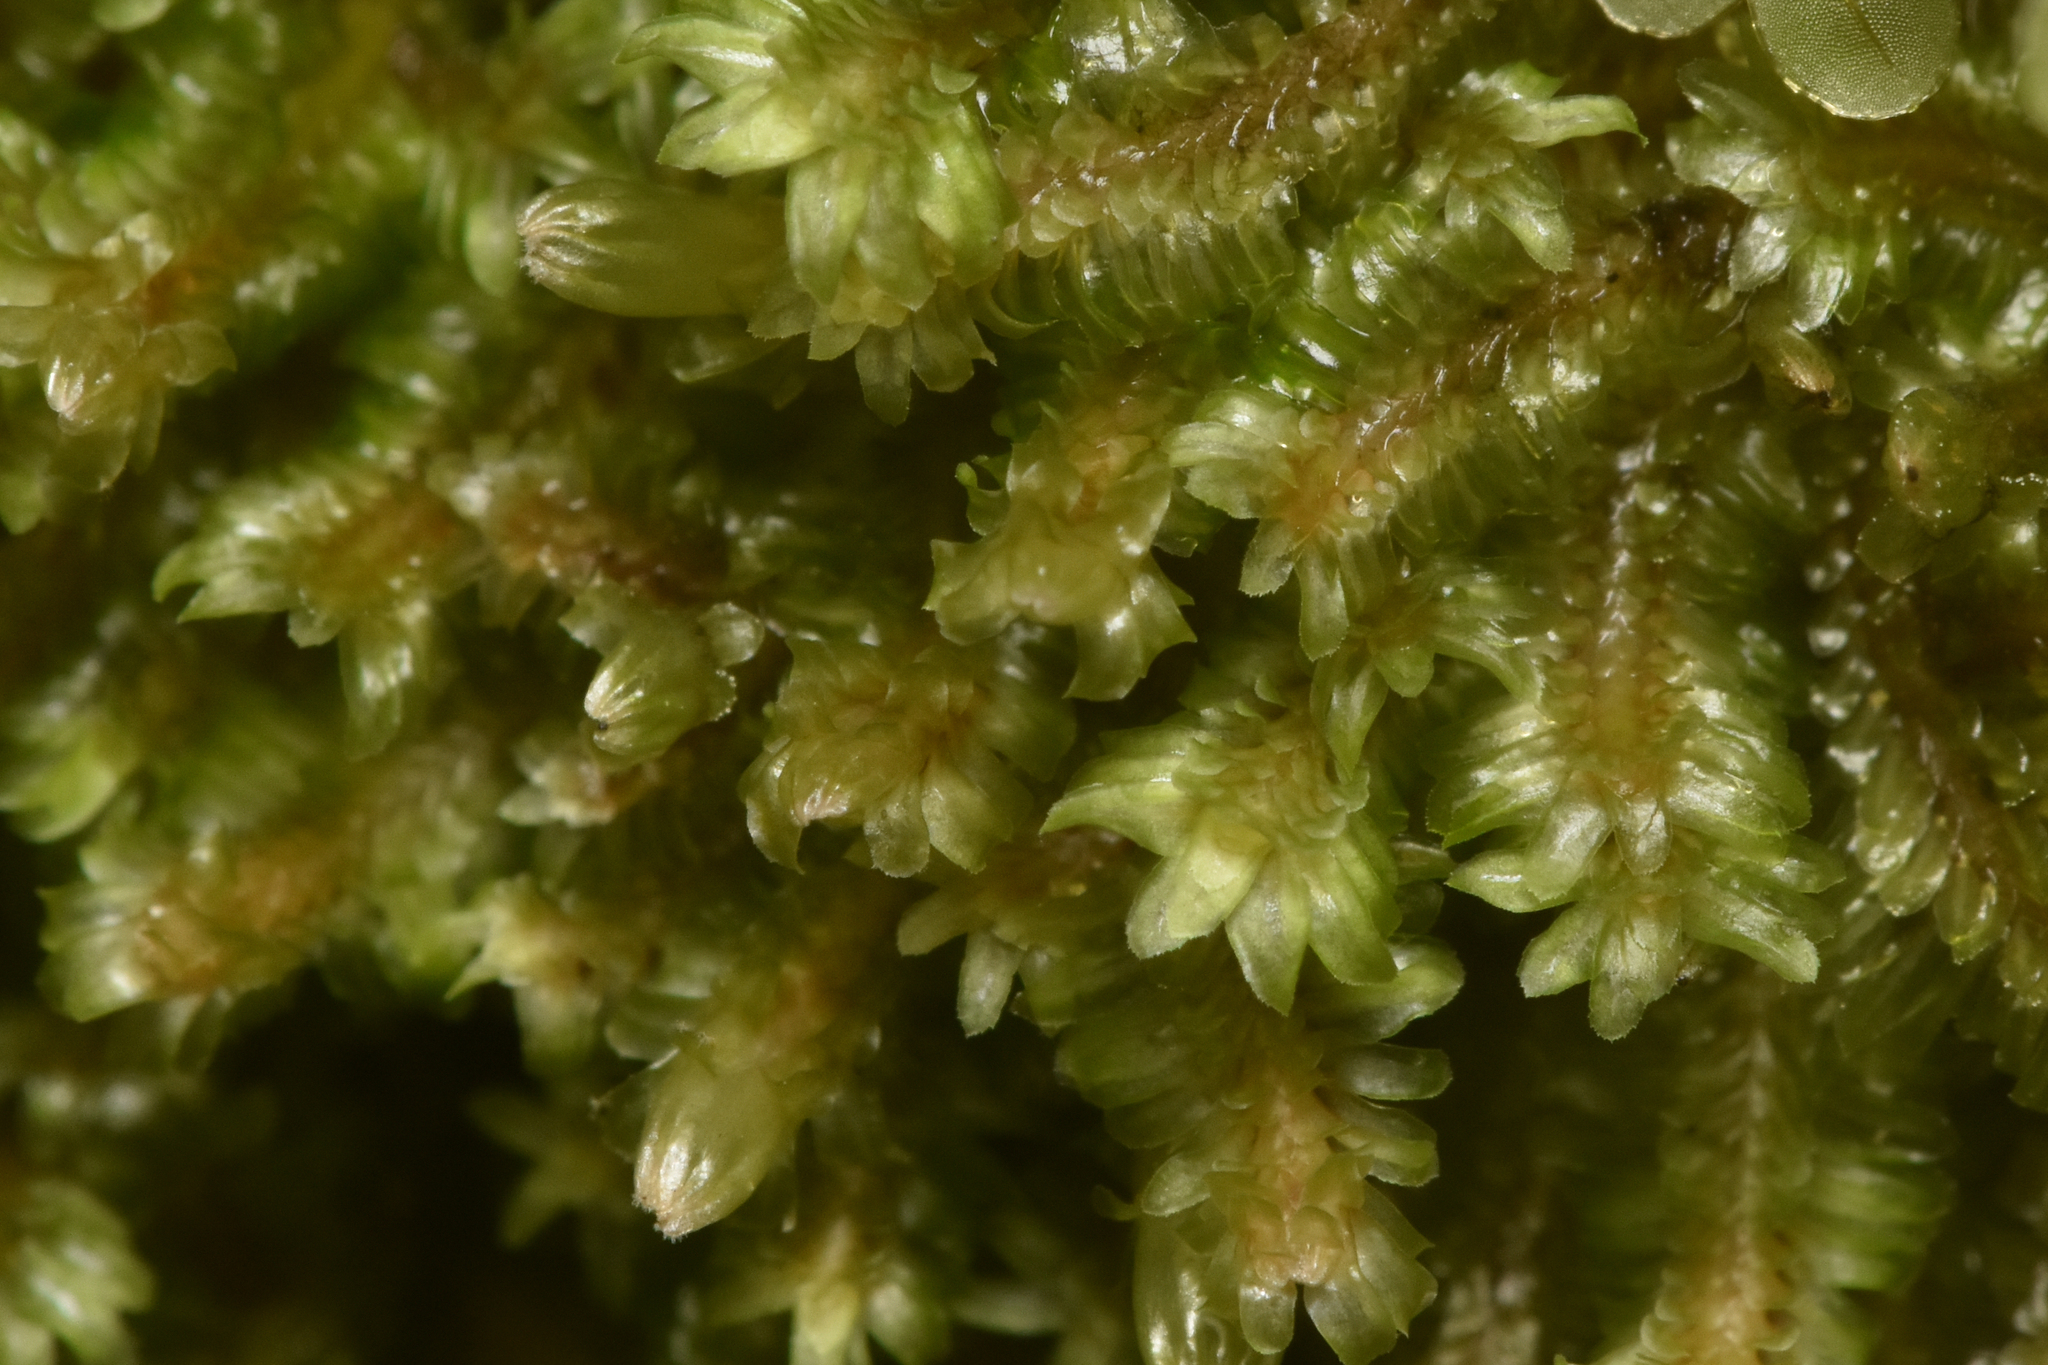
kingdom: Plantae
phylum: Marchantiophyta
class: Jungermanniopsida
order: Jungermanniales
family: Scapaniaceae
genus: Diplophyllum
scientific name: Diplophyllum albicans
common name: White earwort
